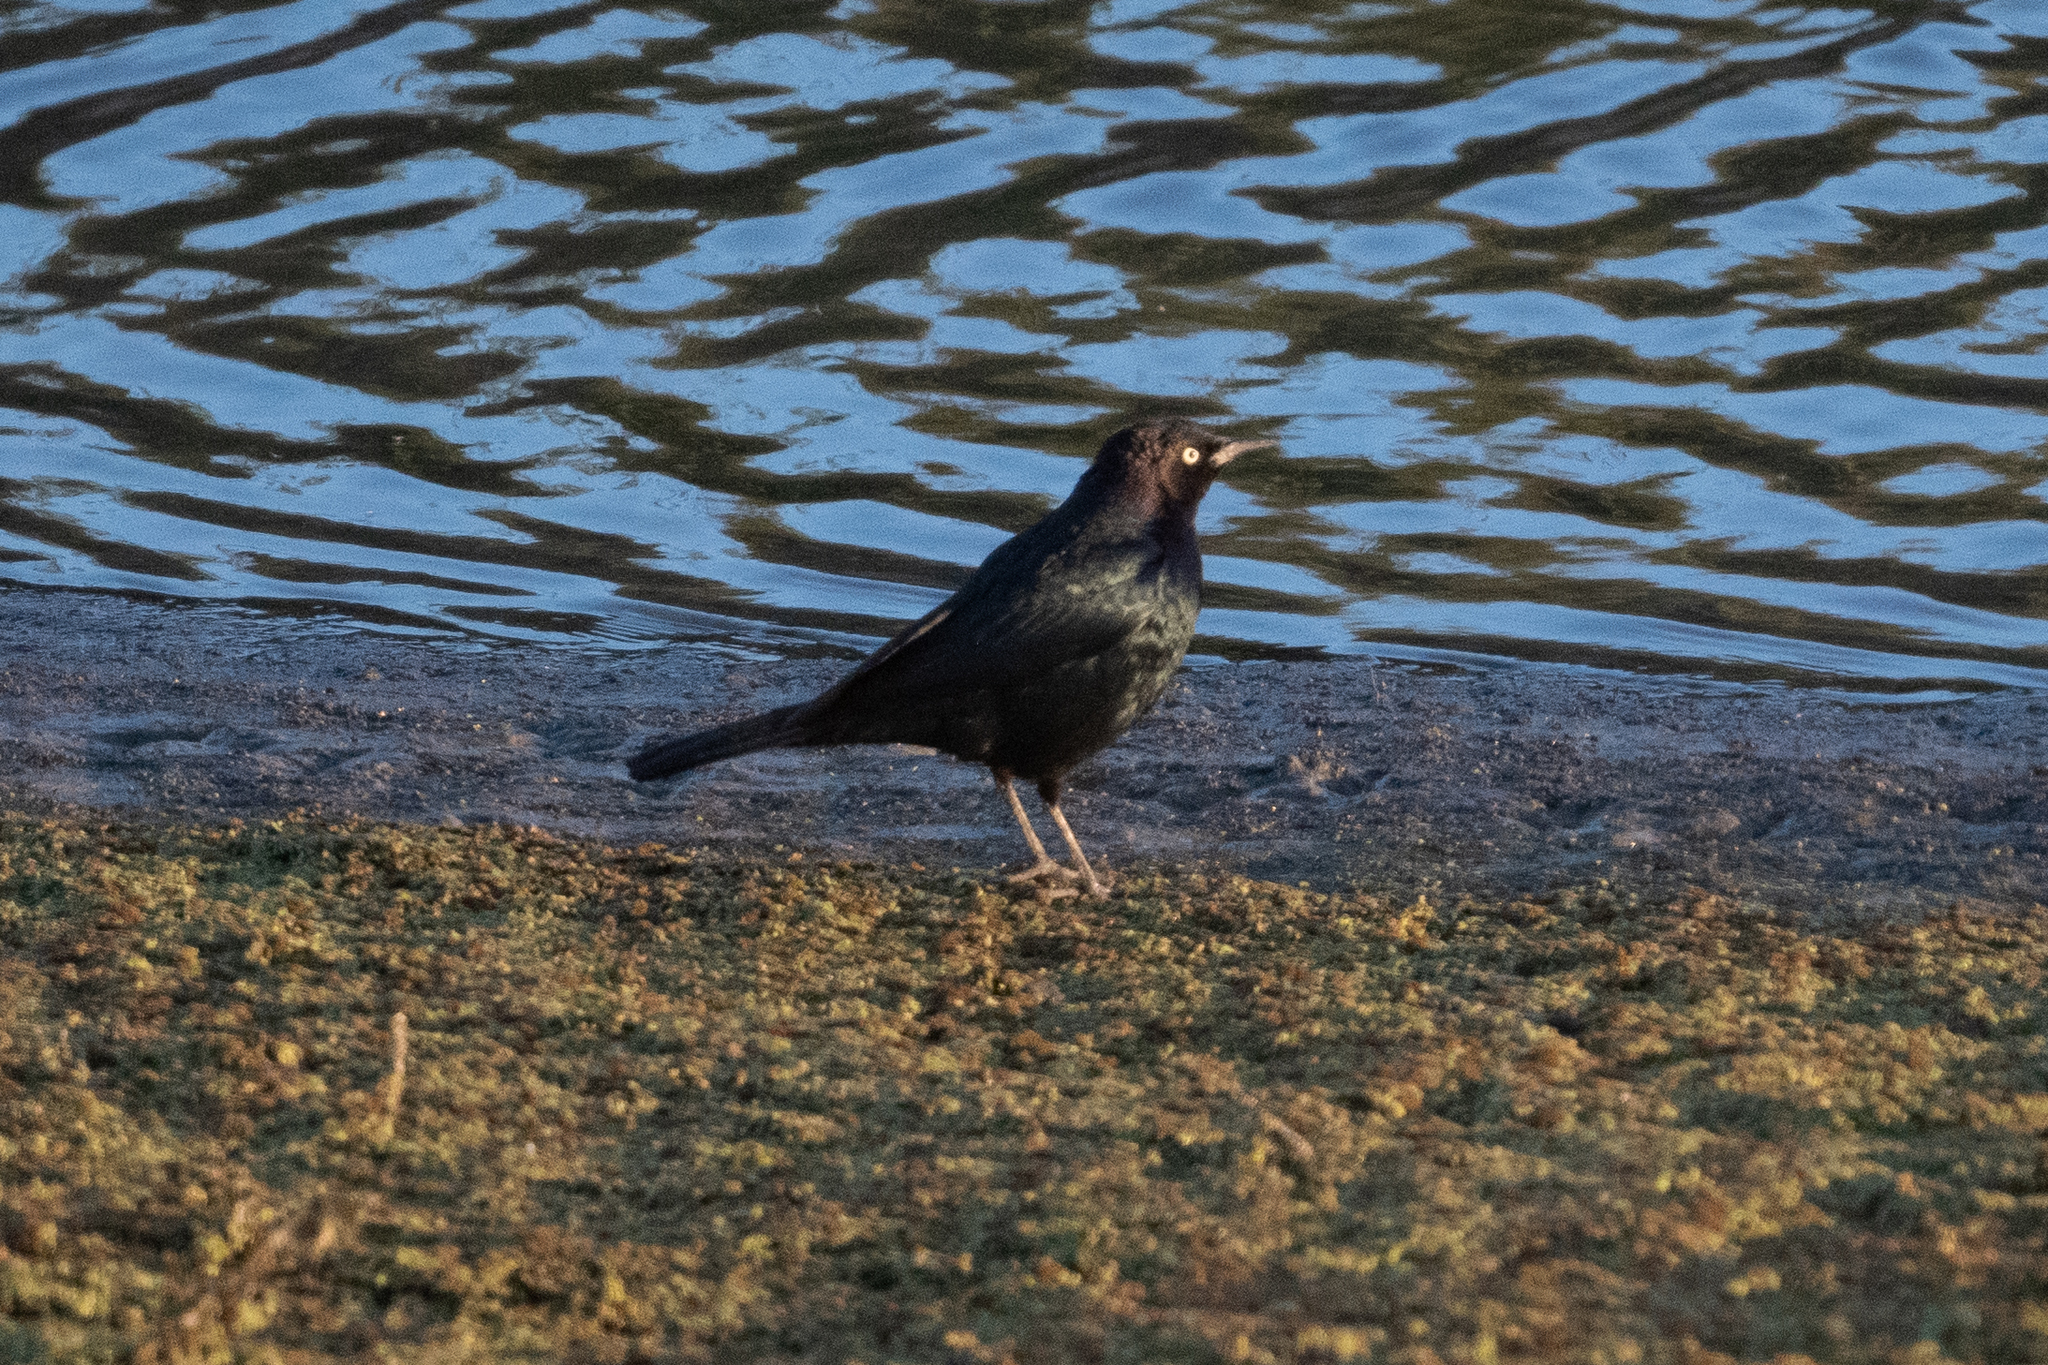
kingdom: Animalia
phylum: Chordata
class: Aves
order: Passeriformes
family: Icteridae
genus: Euphagus
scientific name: Euphagus cyanocephalus
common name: Brewer's blackbird
